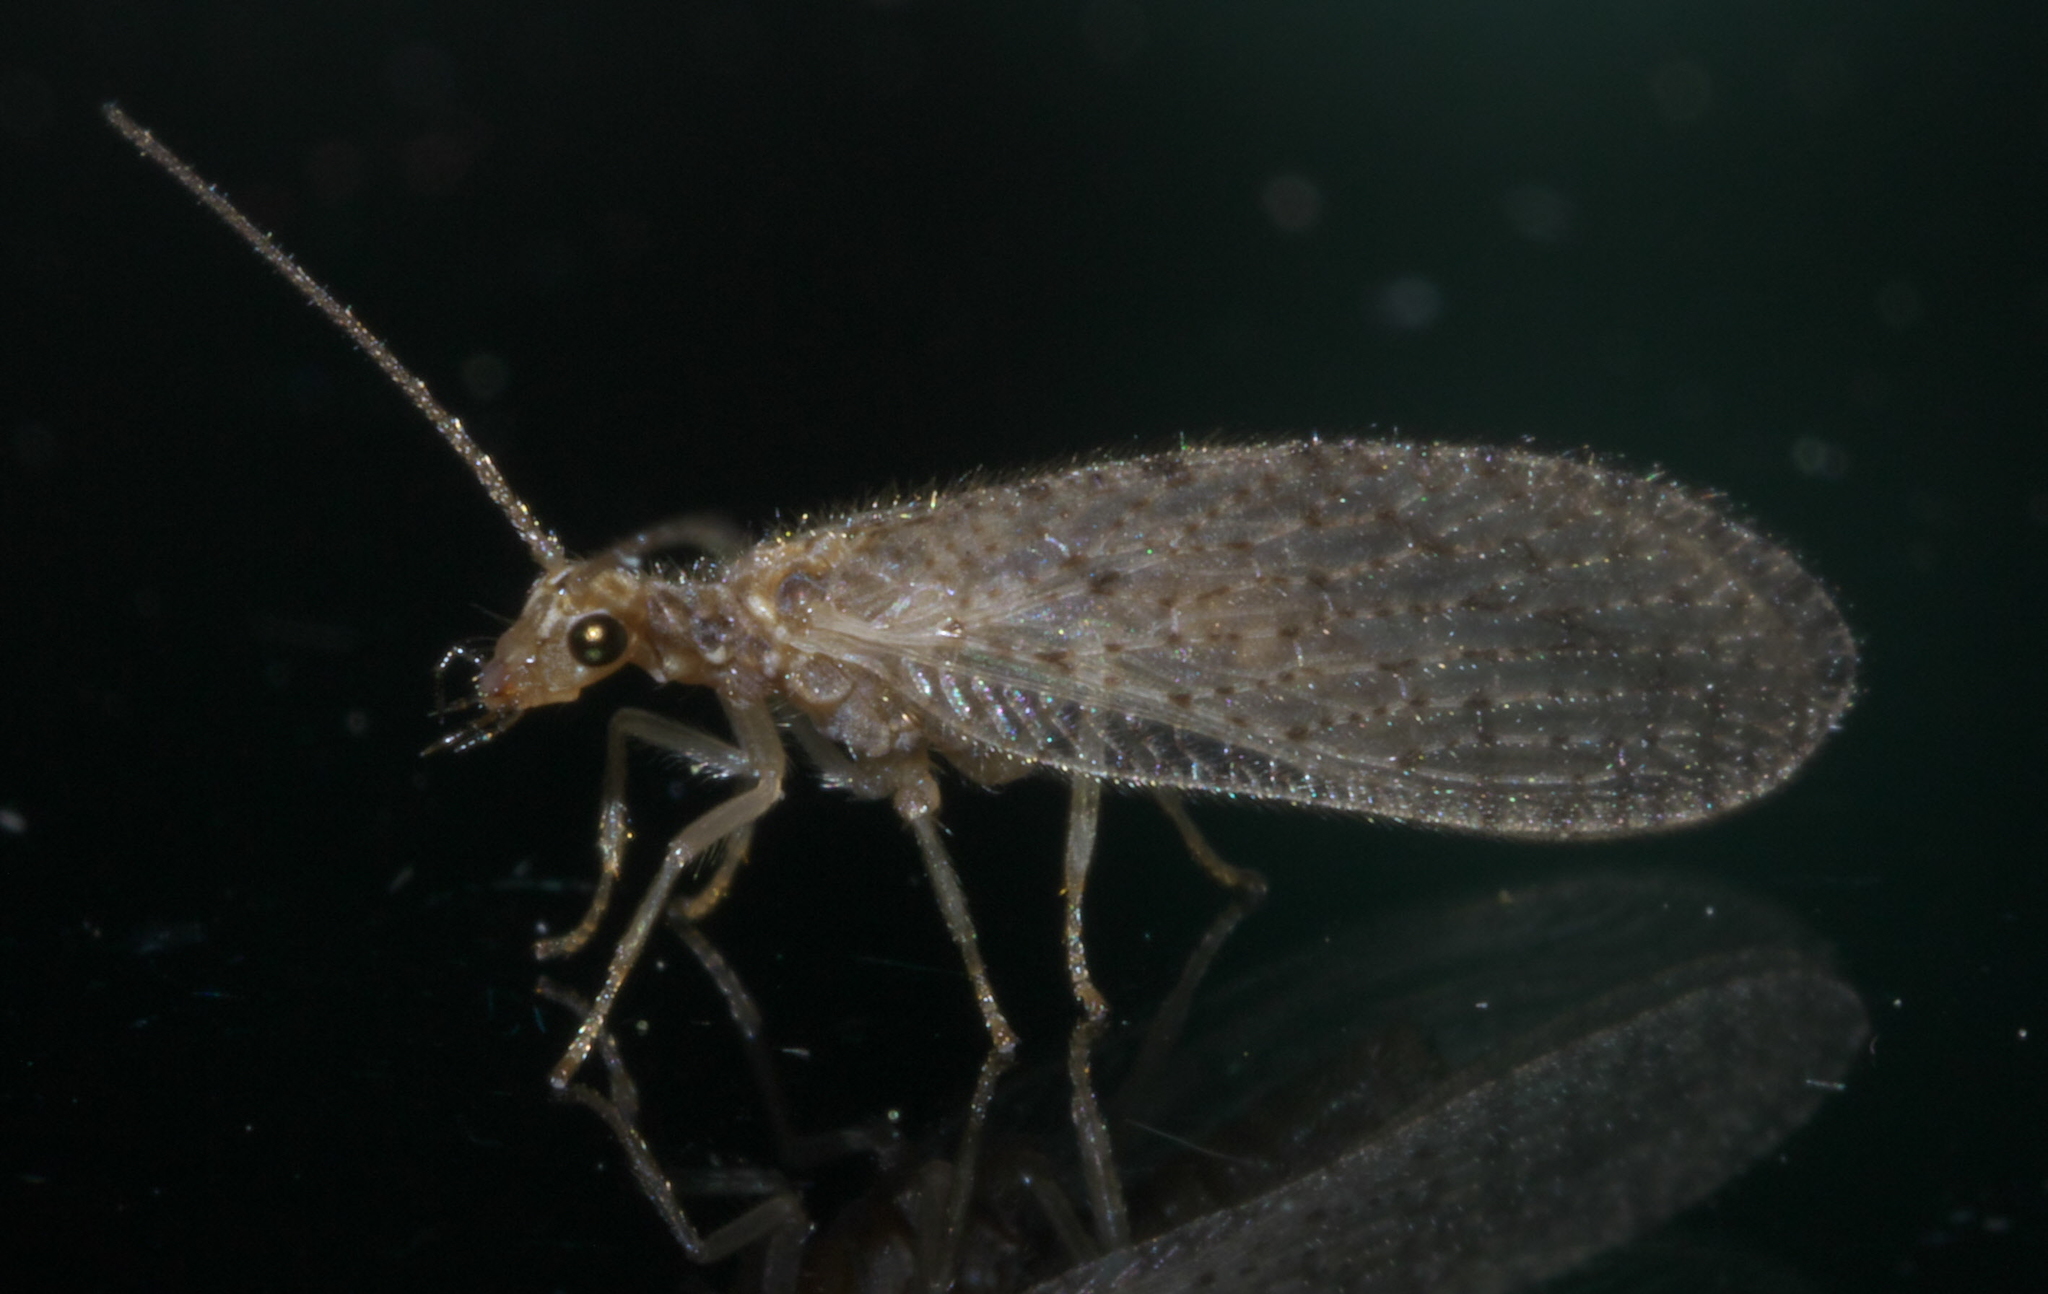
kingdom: Animalia
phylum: Arthropoda
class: Insecta
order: Neuroptera
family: Hemerobiidae
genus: Micromus
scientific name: Micromus subanticus
